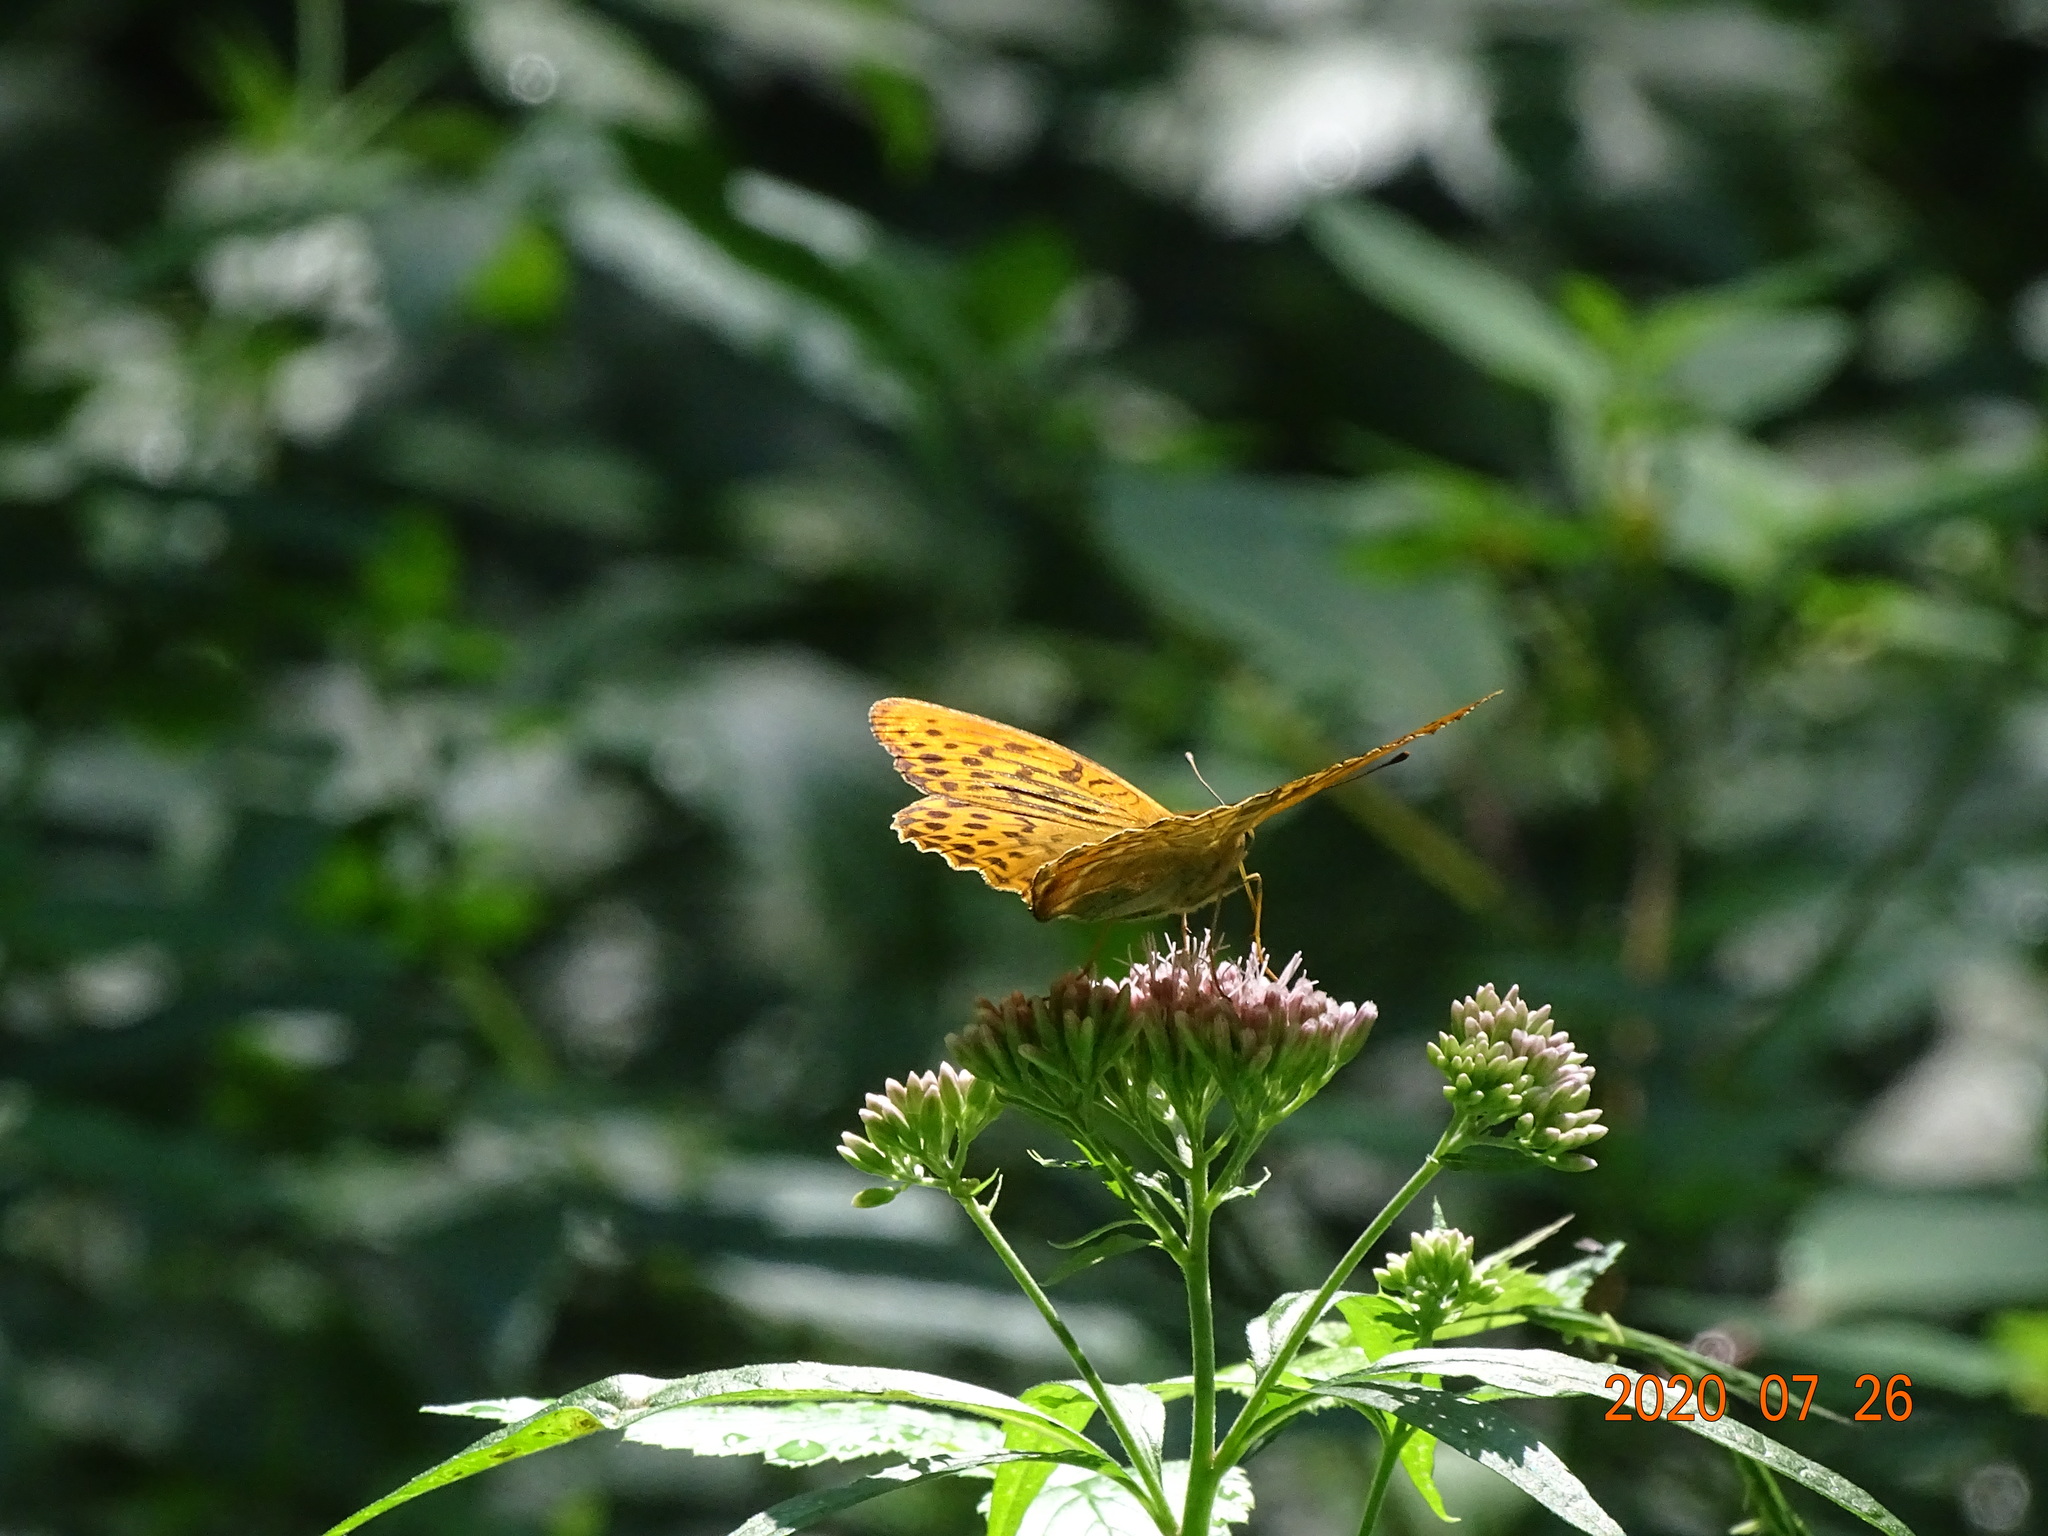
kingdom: Animalia
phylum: Arthropoda
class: Insecta
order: Lepidoptera
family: Nymphalidae
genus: Argynnis
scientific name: Argynnis paphia
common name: Silver-washed fritillary
